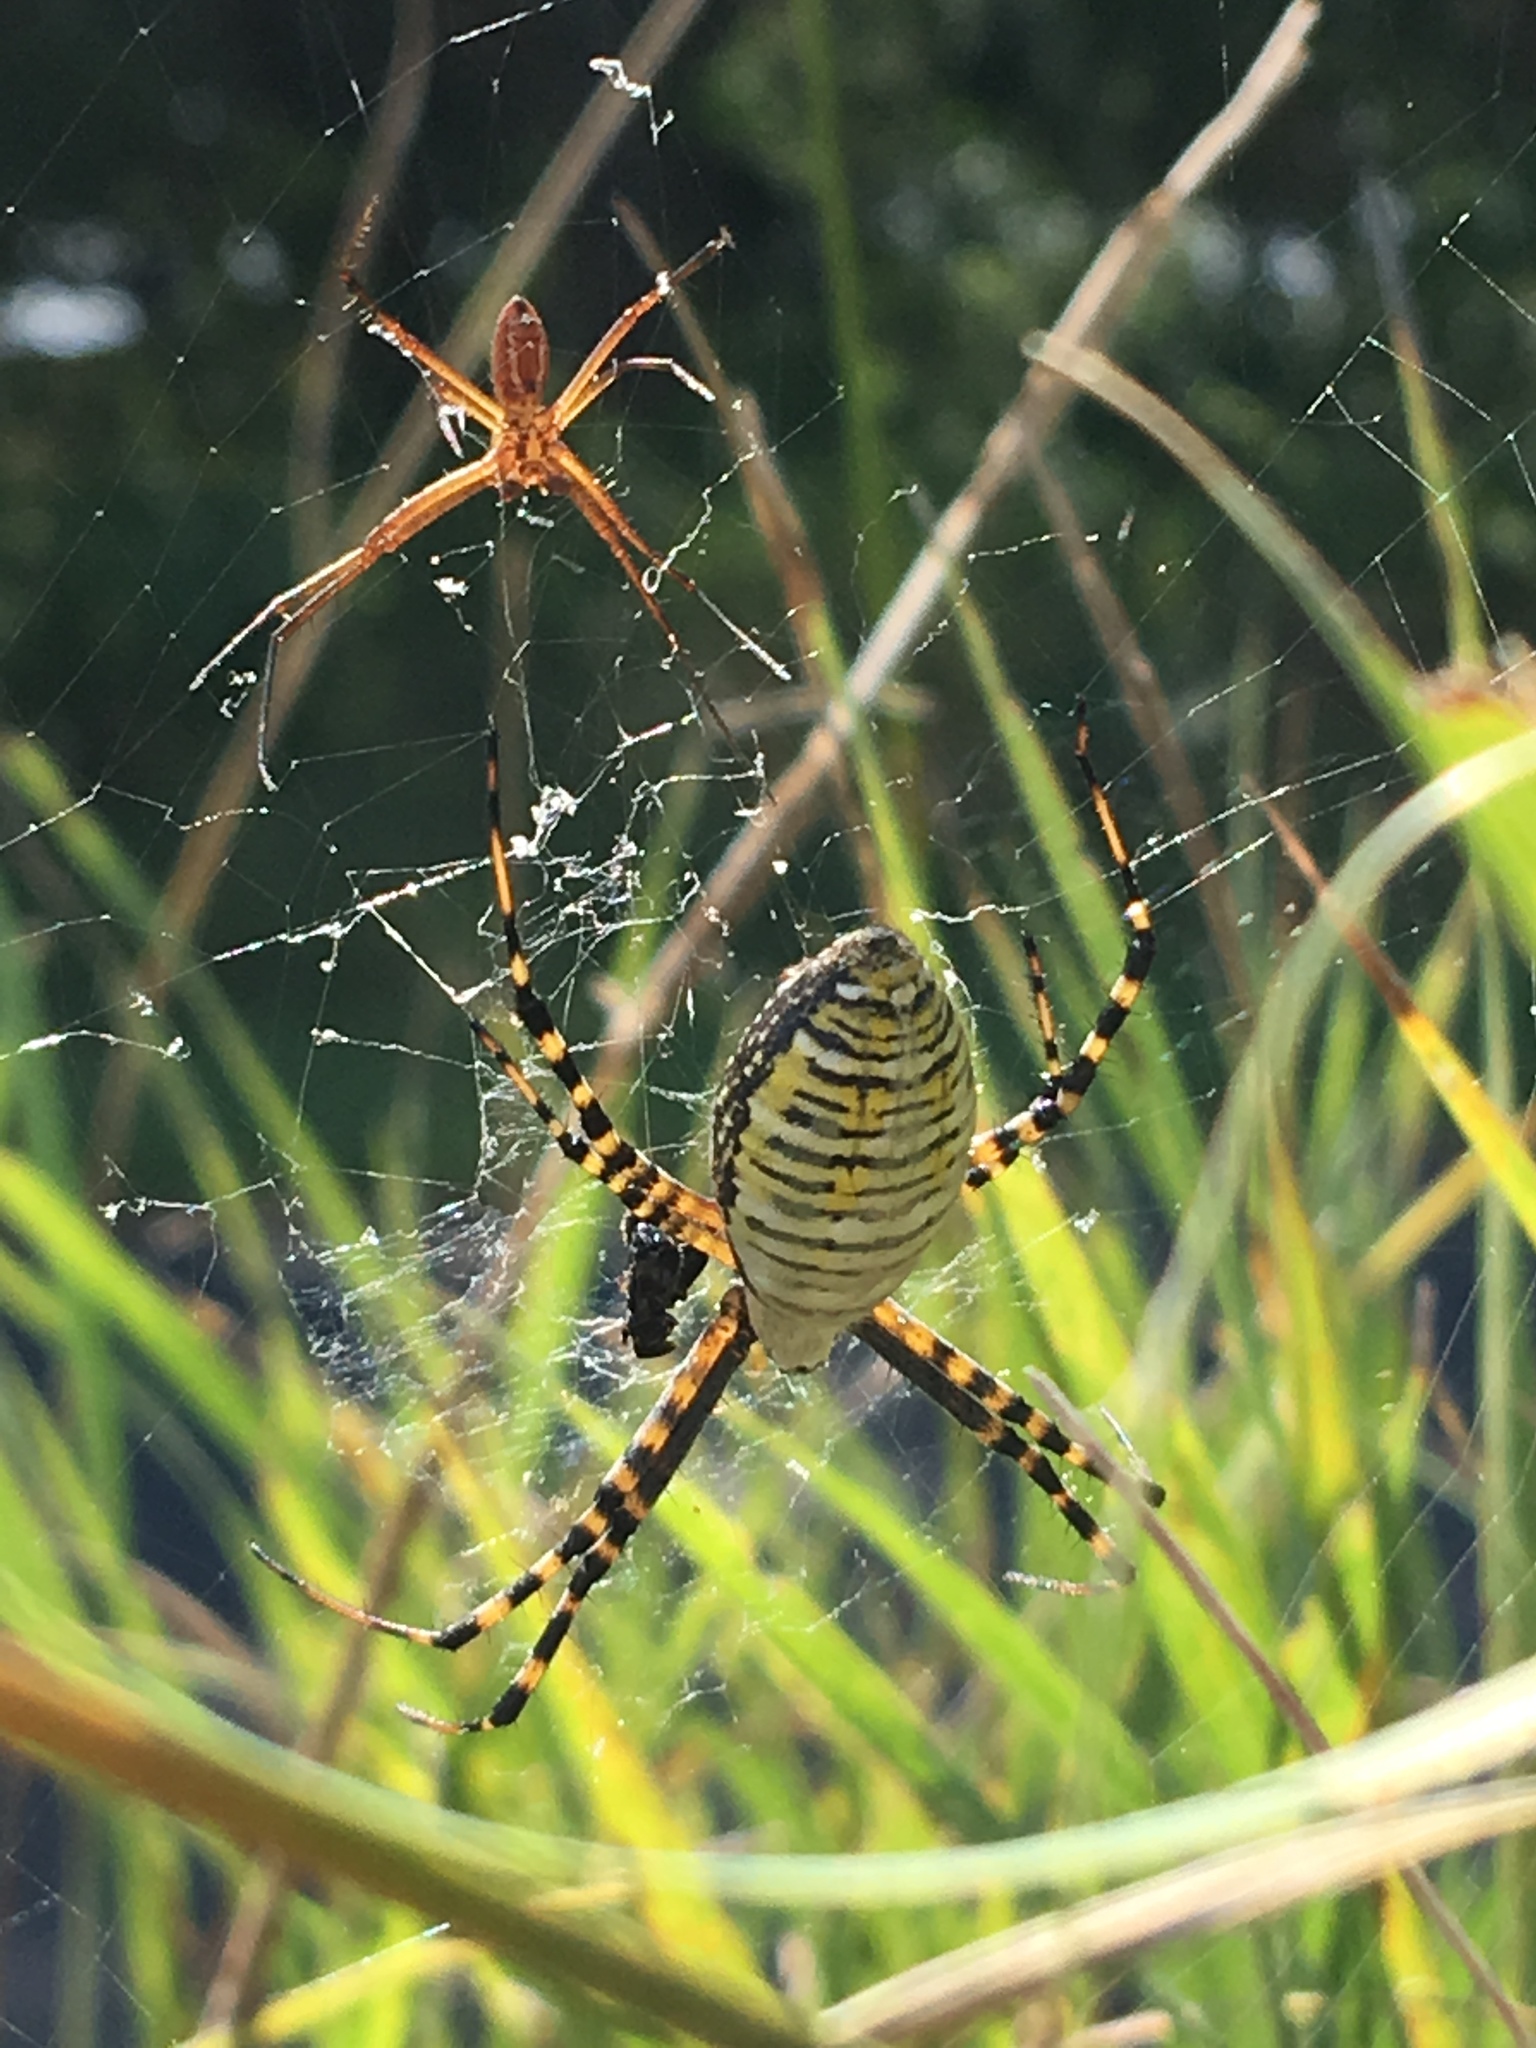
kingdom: Animalia
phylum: Arthropoda
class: Arachnida
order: Araneae
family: Araneidae
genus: Argiope
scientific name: Argiope trifasciata
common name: Banded garden spider
